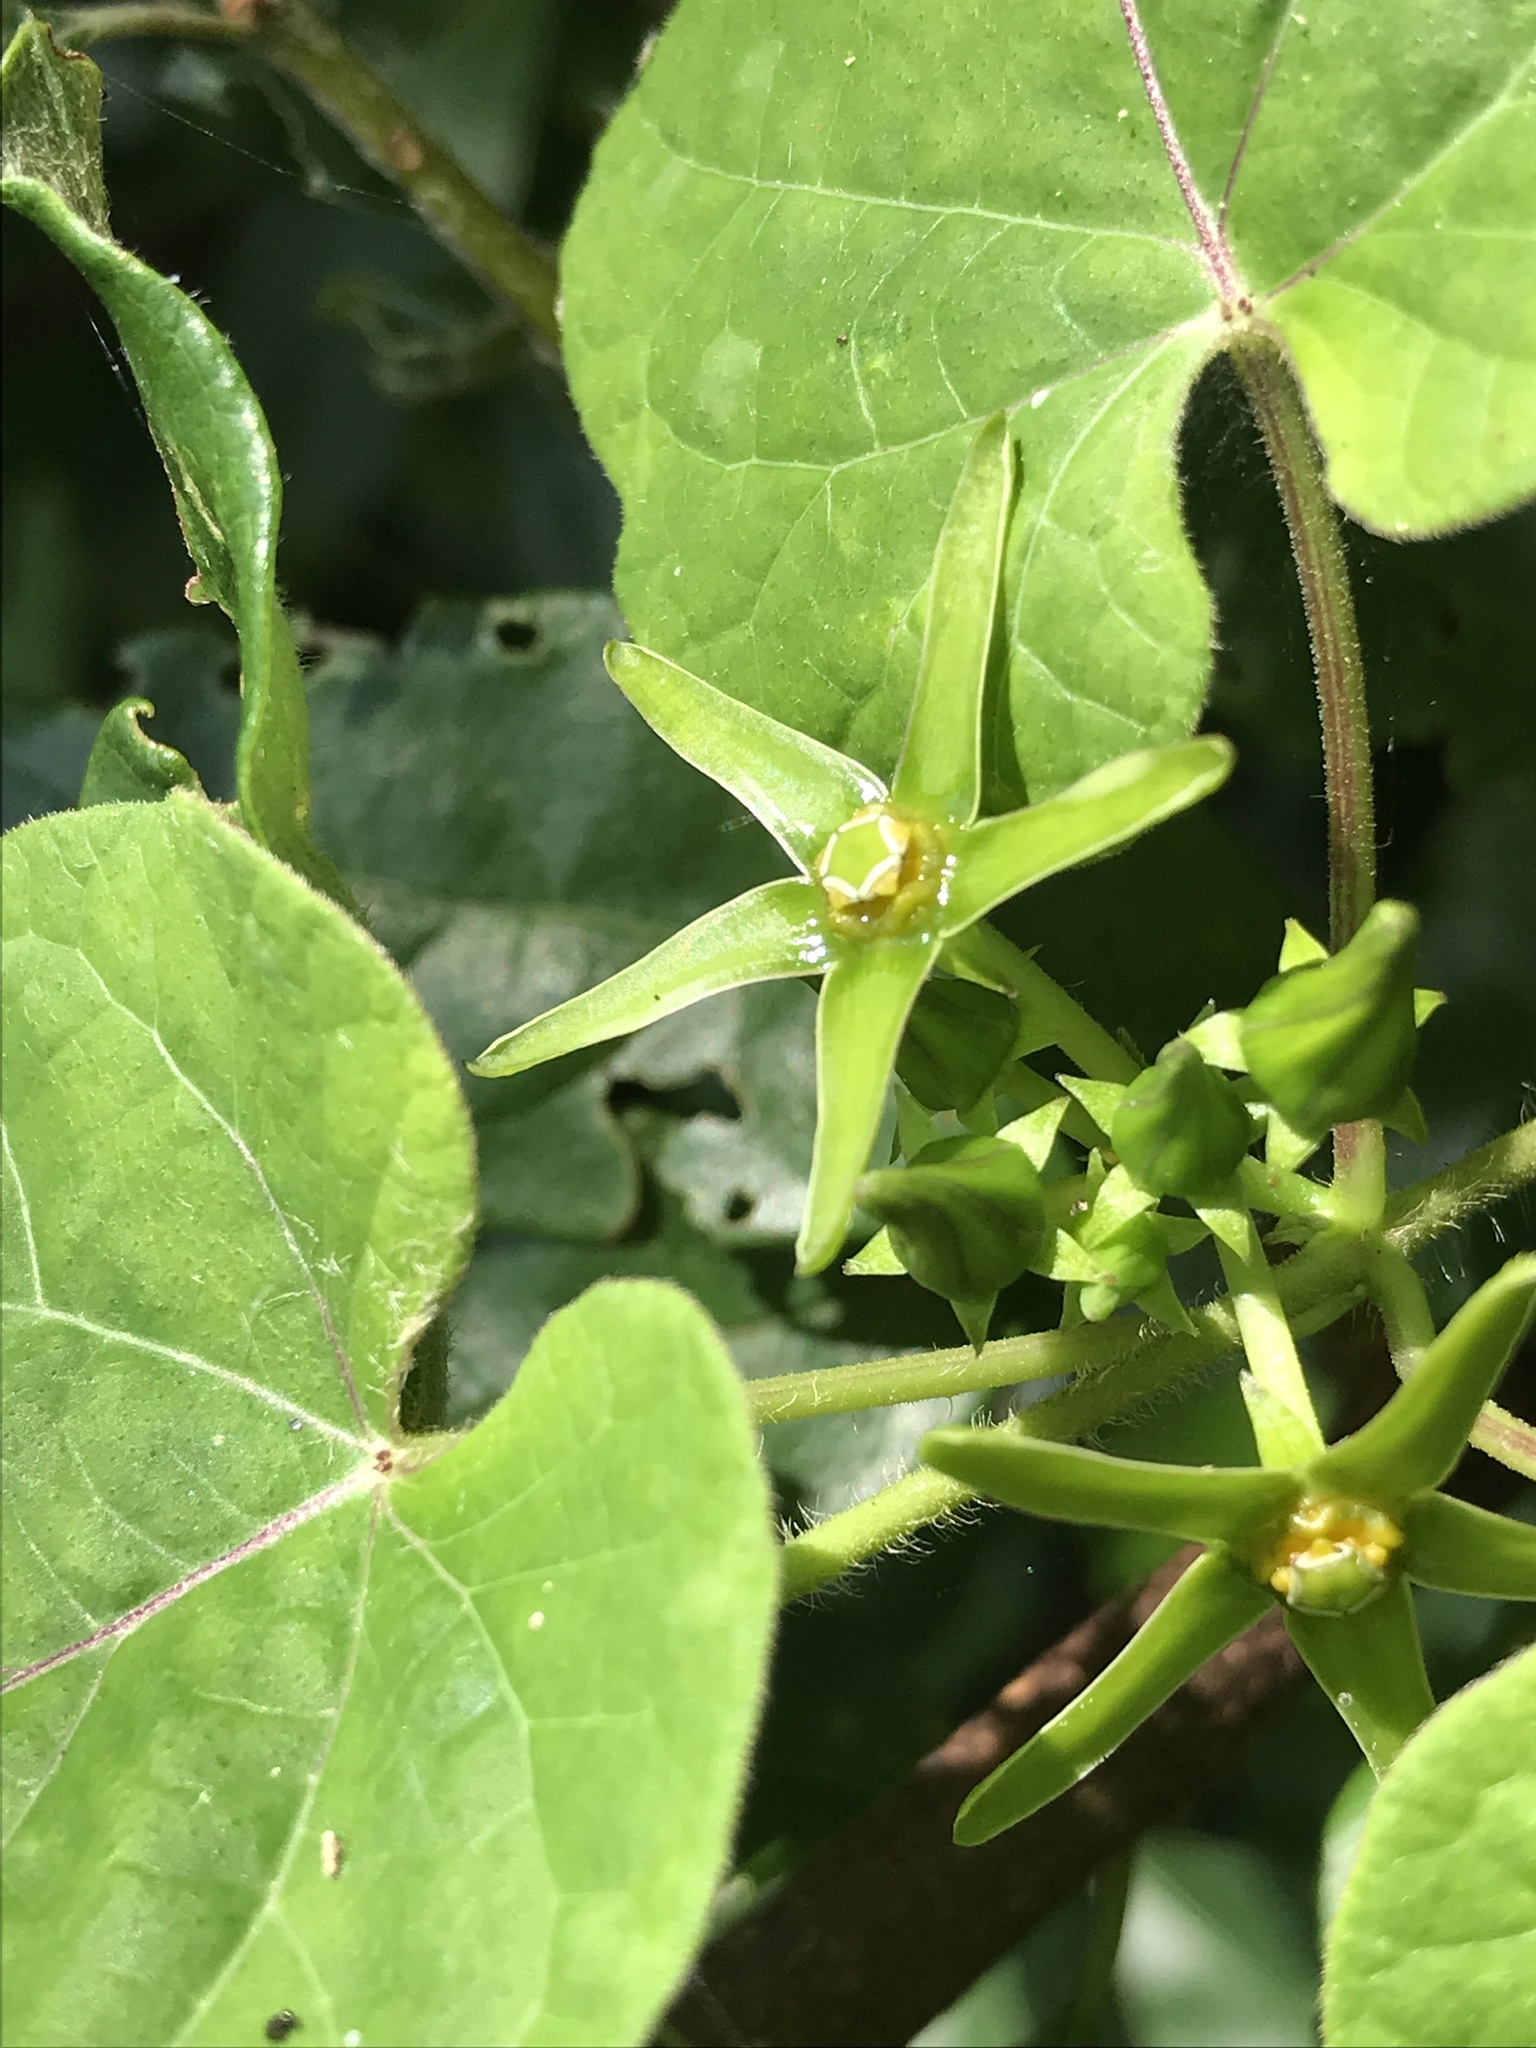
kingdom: Plantae
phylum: Tracheophyta
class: Magnoliopsida
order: Gentianales
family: Apocynaceae
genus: Gonolobus
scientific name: Gonolobus suberosus
